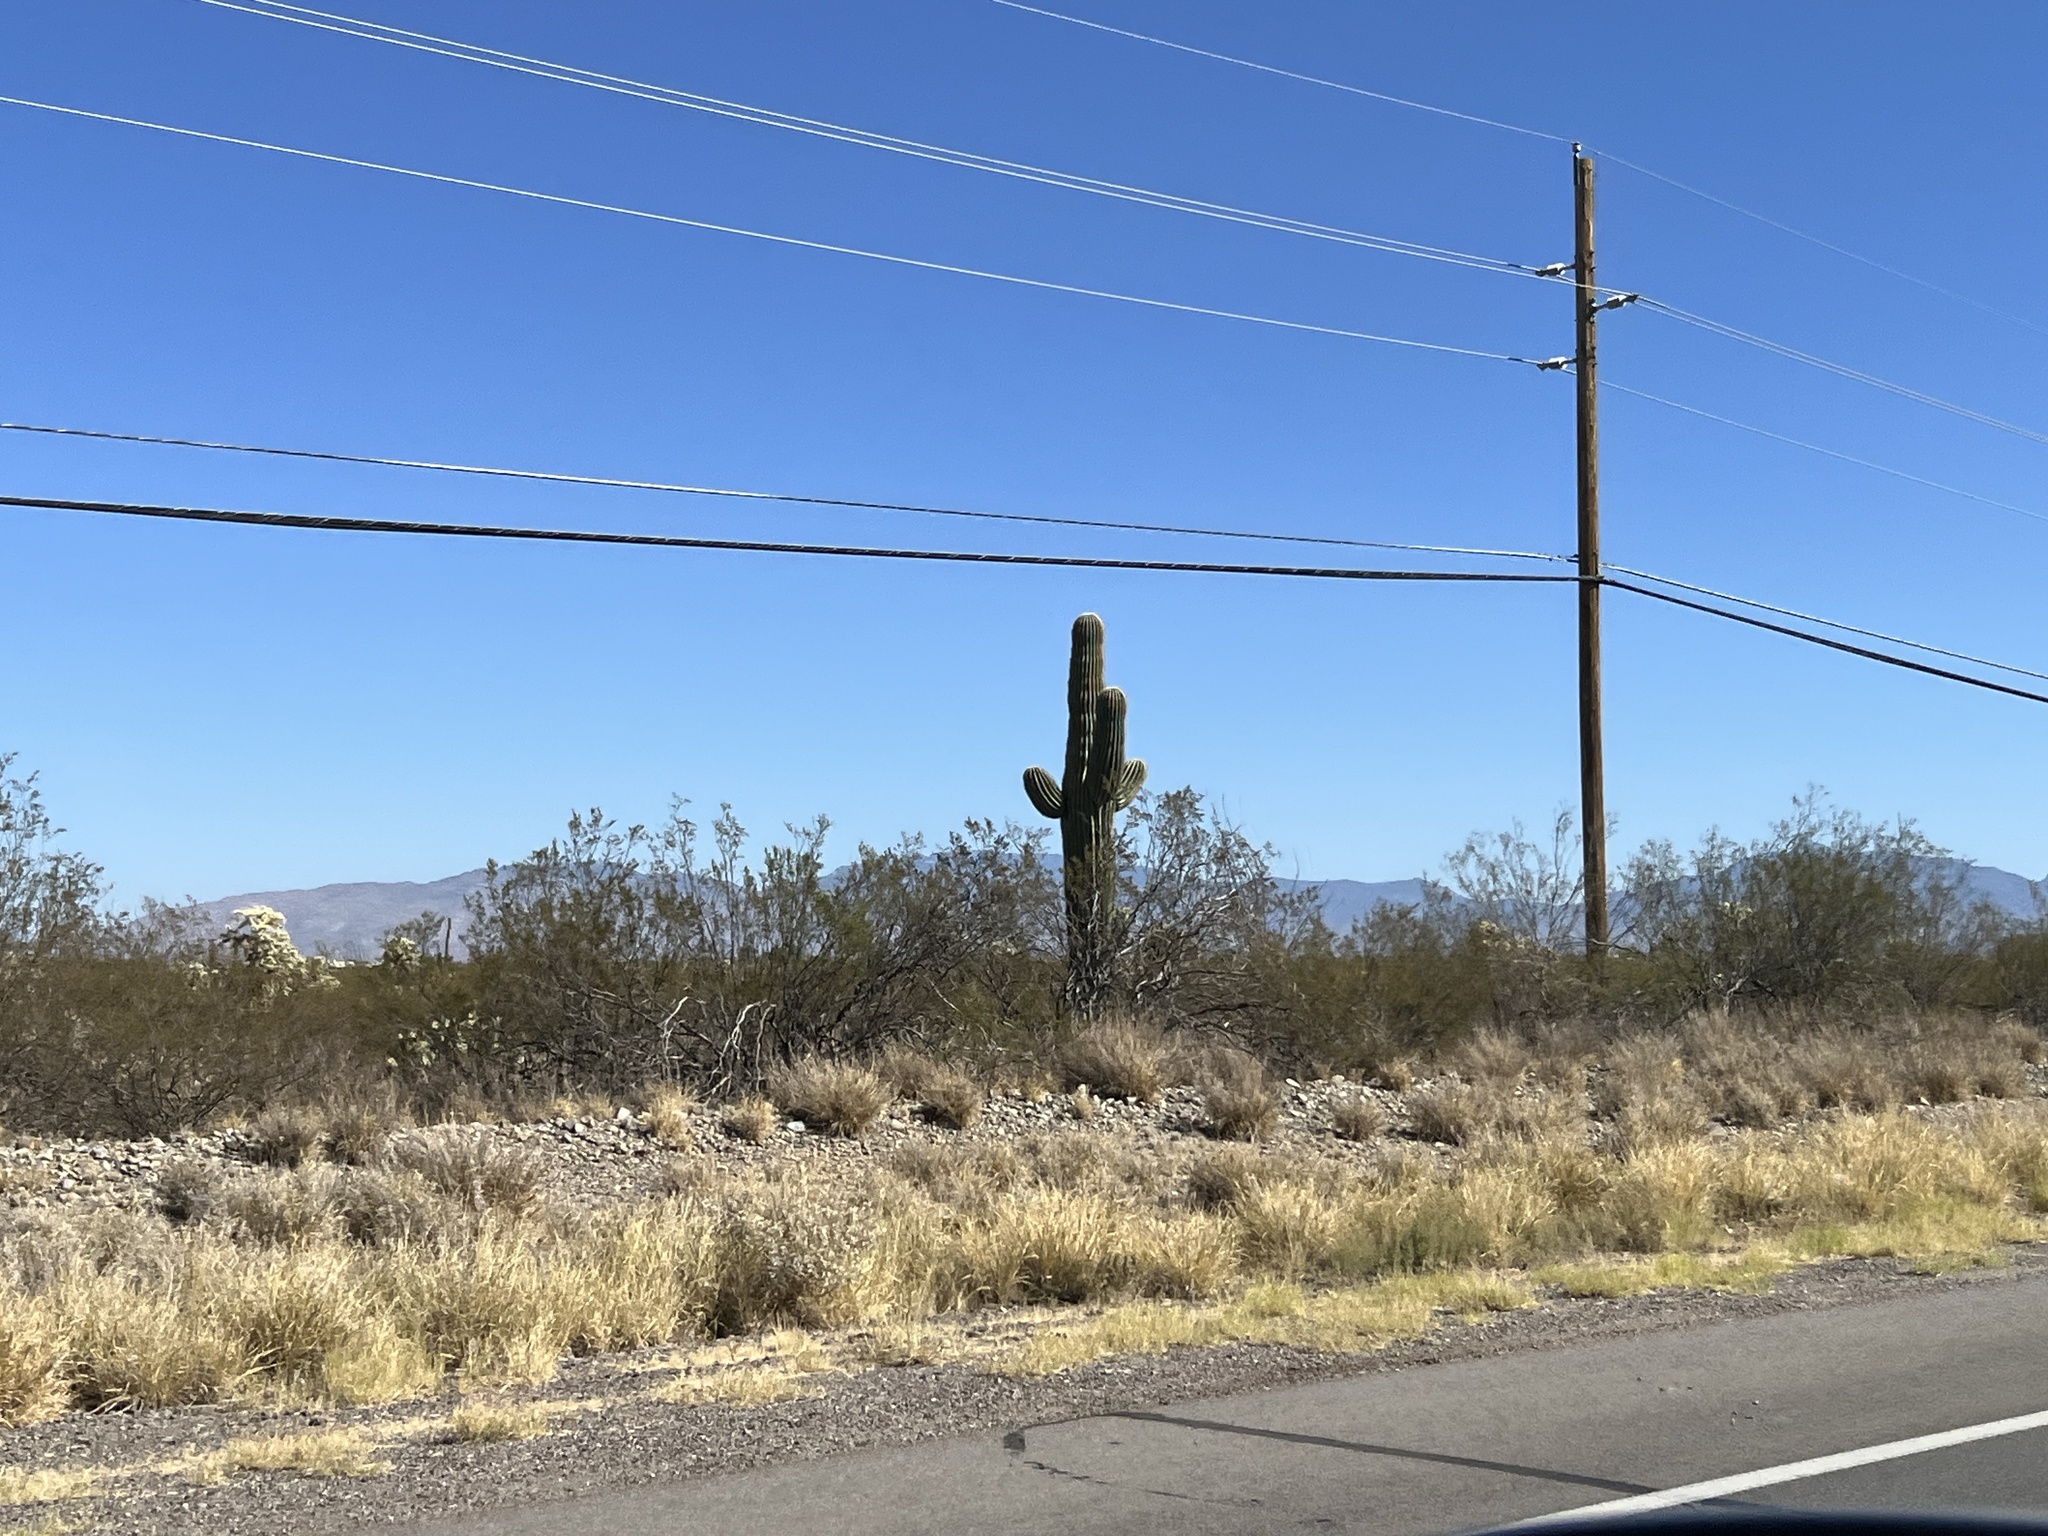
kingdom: Plantae
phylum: Tracheophyta
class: Magnoliopsida
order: Caryophyllales
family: Cactaceae
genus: Carnegiea
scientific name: Carnegiea gigantea
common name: Saguaro
